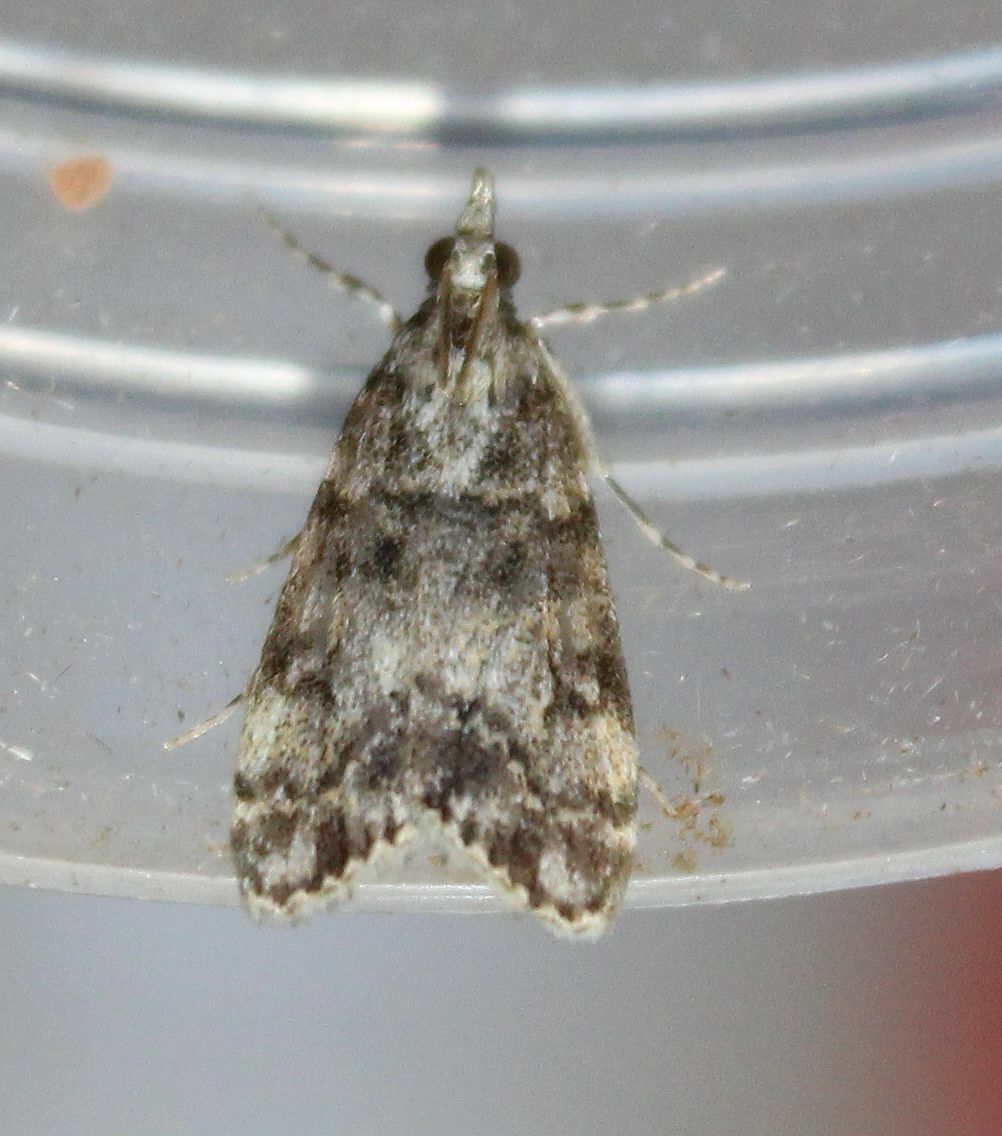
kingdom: Animalia
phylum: Arthropoda
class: Insecta
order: Lepidoptera
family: Crambidae
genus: Eudonia
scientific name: Eudonia lacustrata
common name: Little grey
